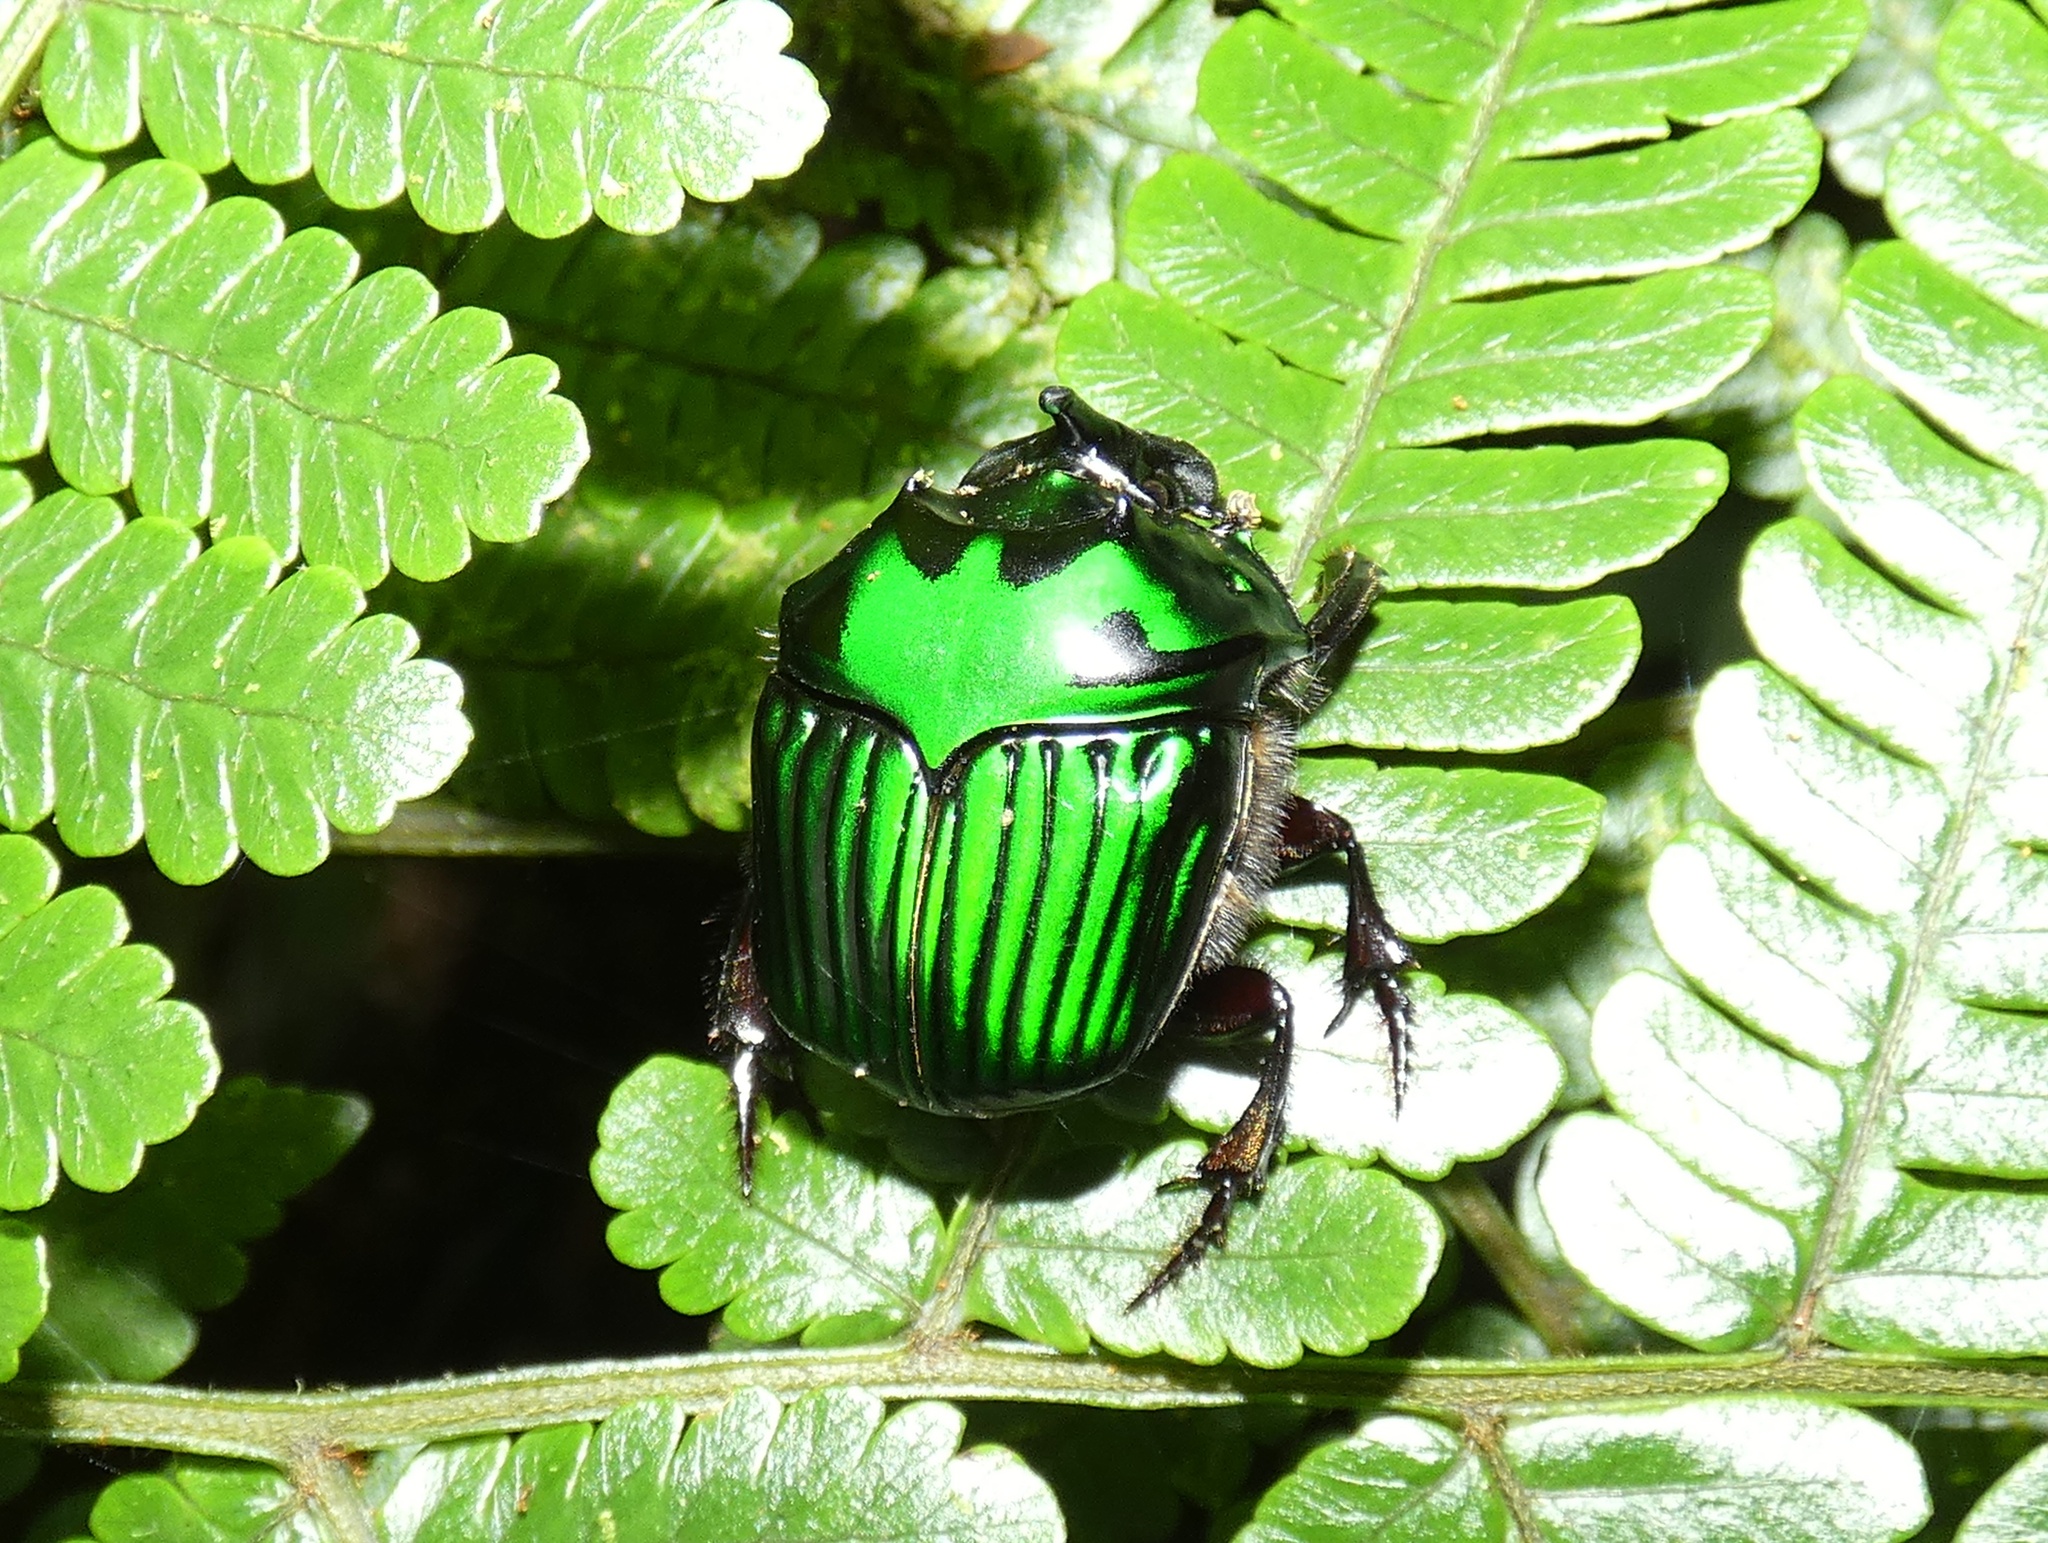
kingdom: Animalia
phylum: Arthropoda
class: Insecta
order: Coleoptera
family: Scarabaeidae
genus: Oxysternon
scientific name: Oxysternon conspicillatum
